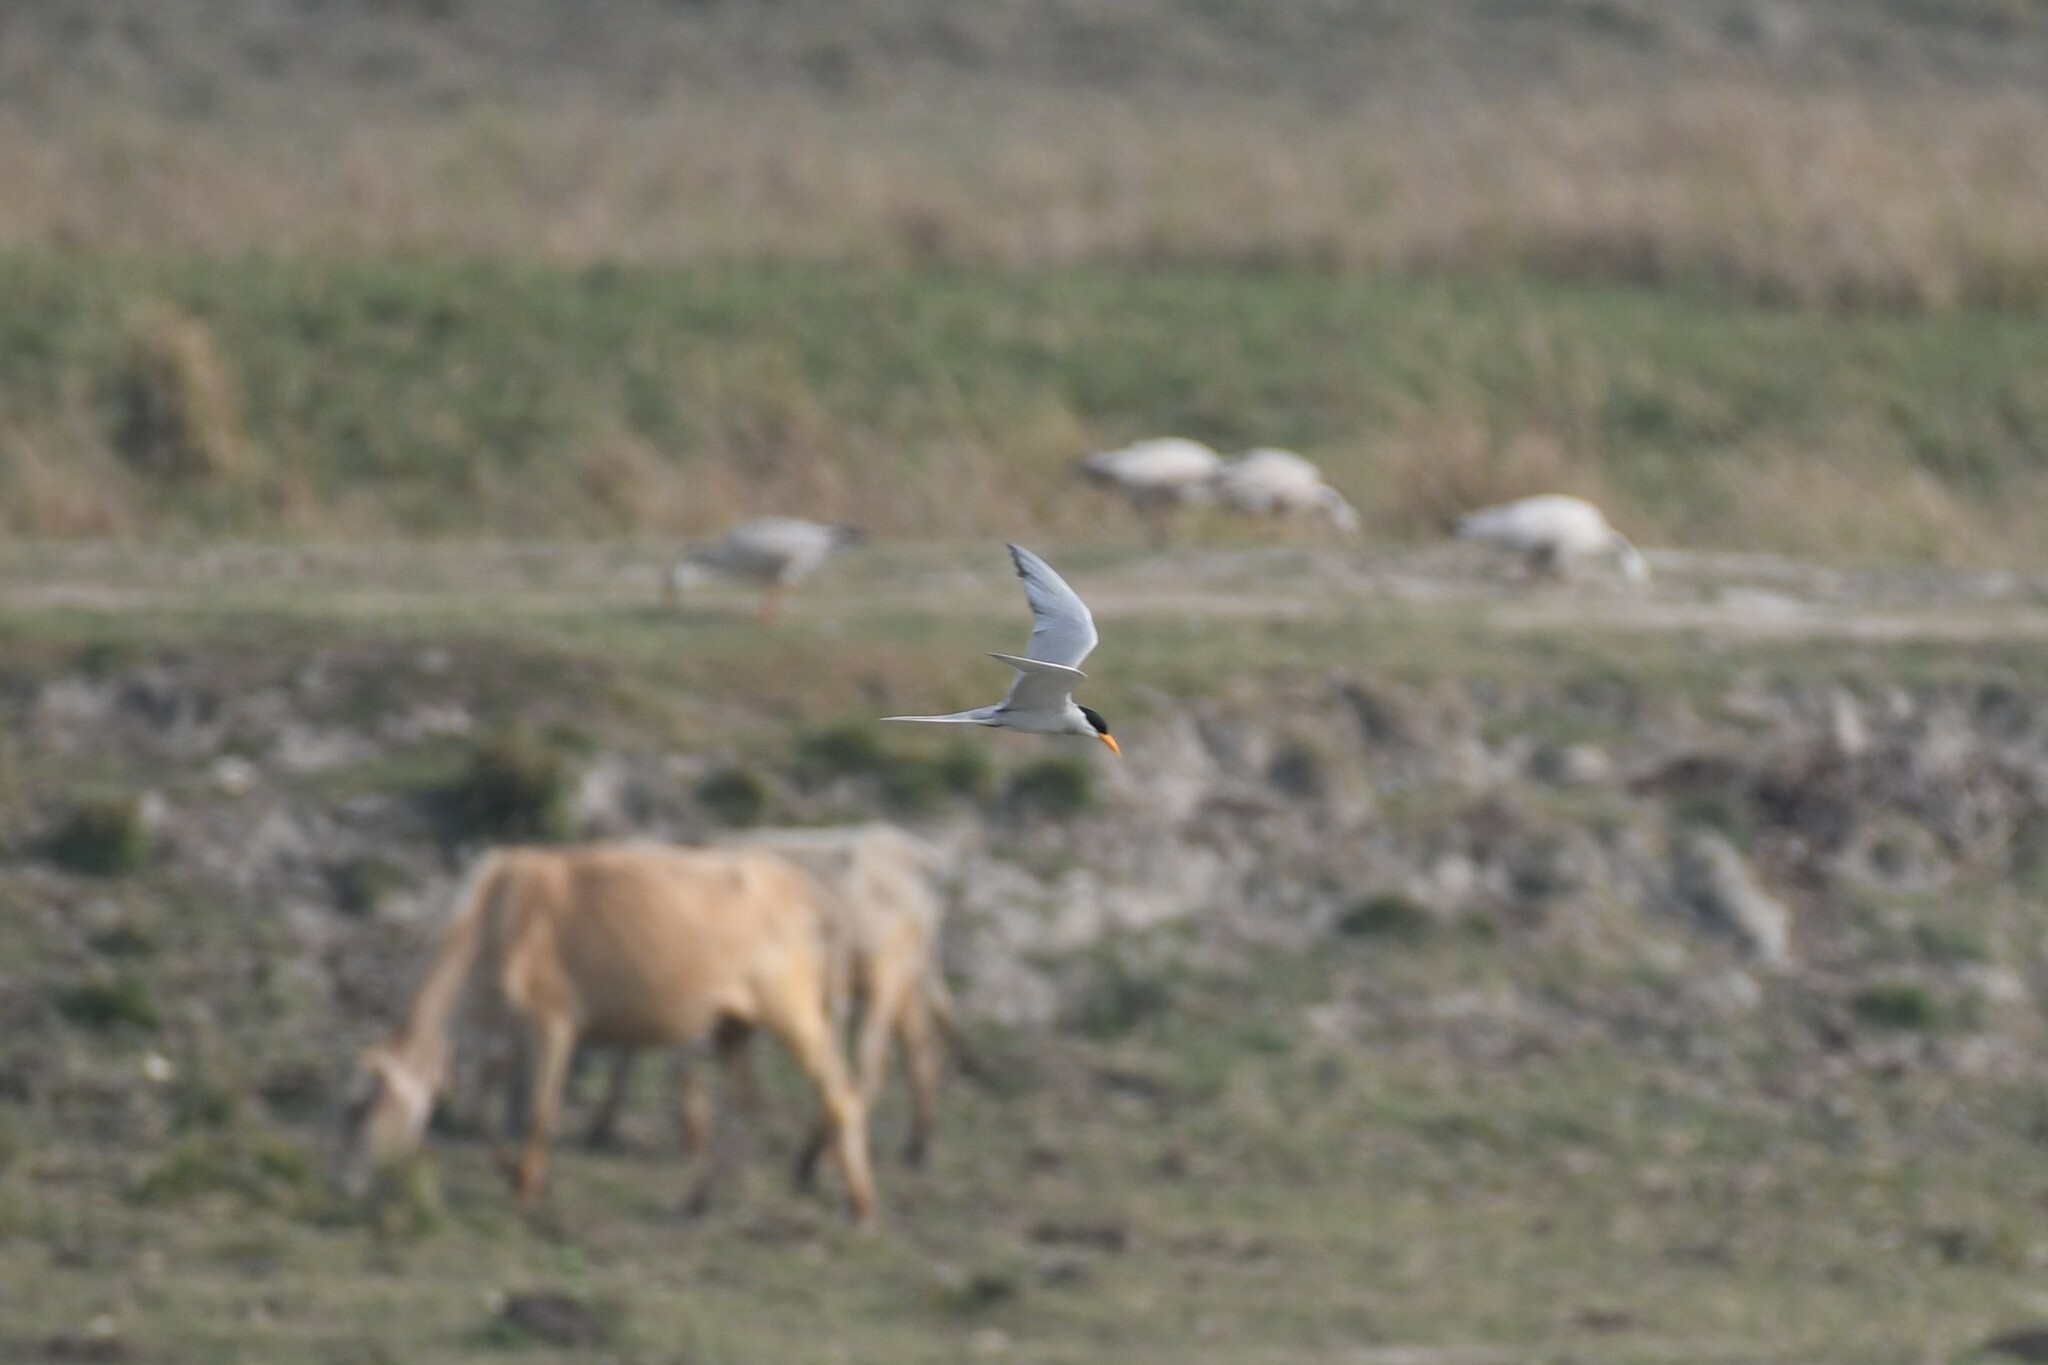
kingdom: Animalia
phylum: Chordata
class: Aves
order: Charadriiformes
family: Laridae
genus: Sterna
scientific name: Sterna aurantia
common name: River tern
